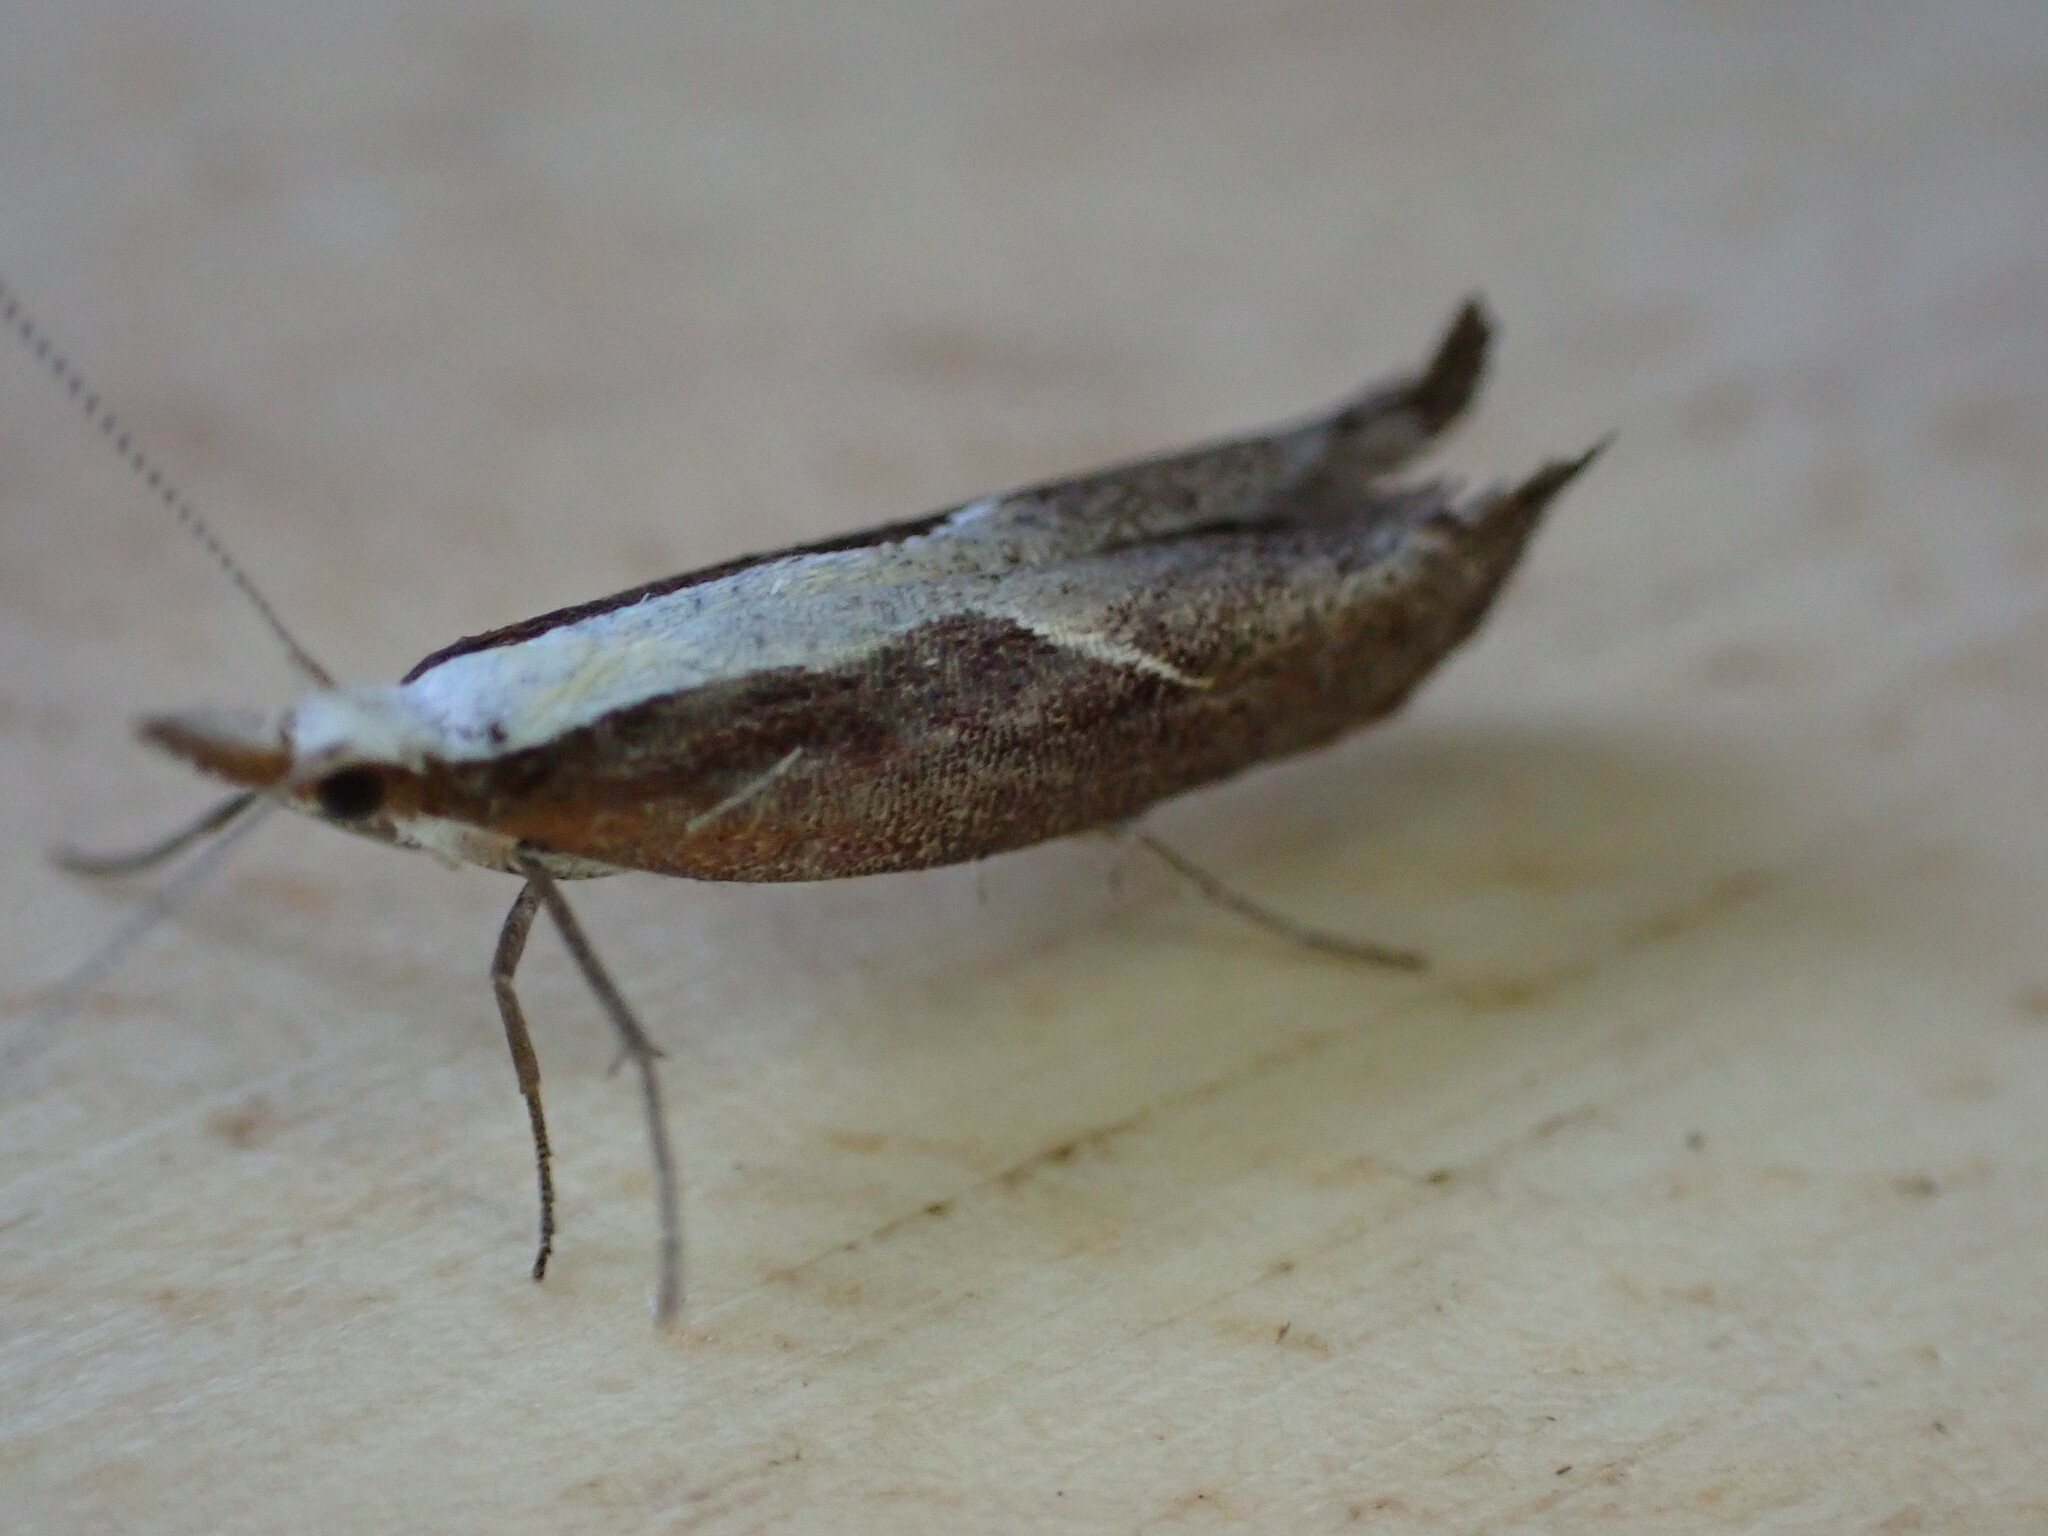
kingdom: Animalia
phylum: Arthropoda
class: Insecta
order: Lepidoptera
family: Ypsolophidae
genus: Ypsolopha
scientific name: Ypsolopha dentella
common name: Honeysuckle moth
